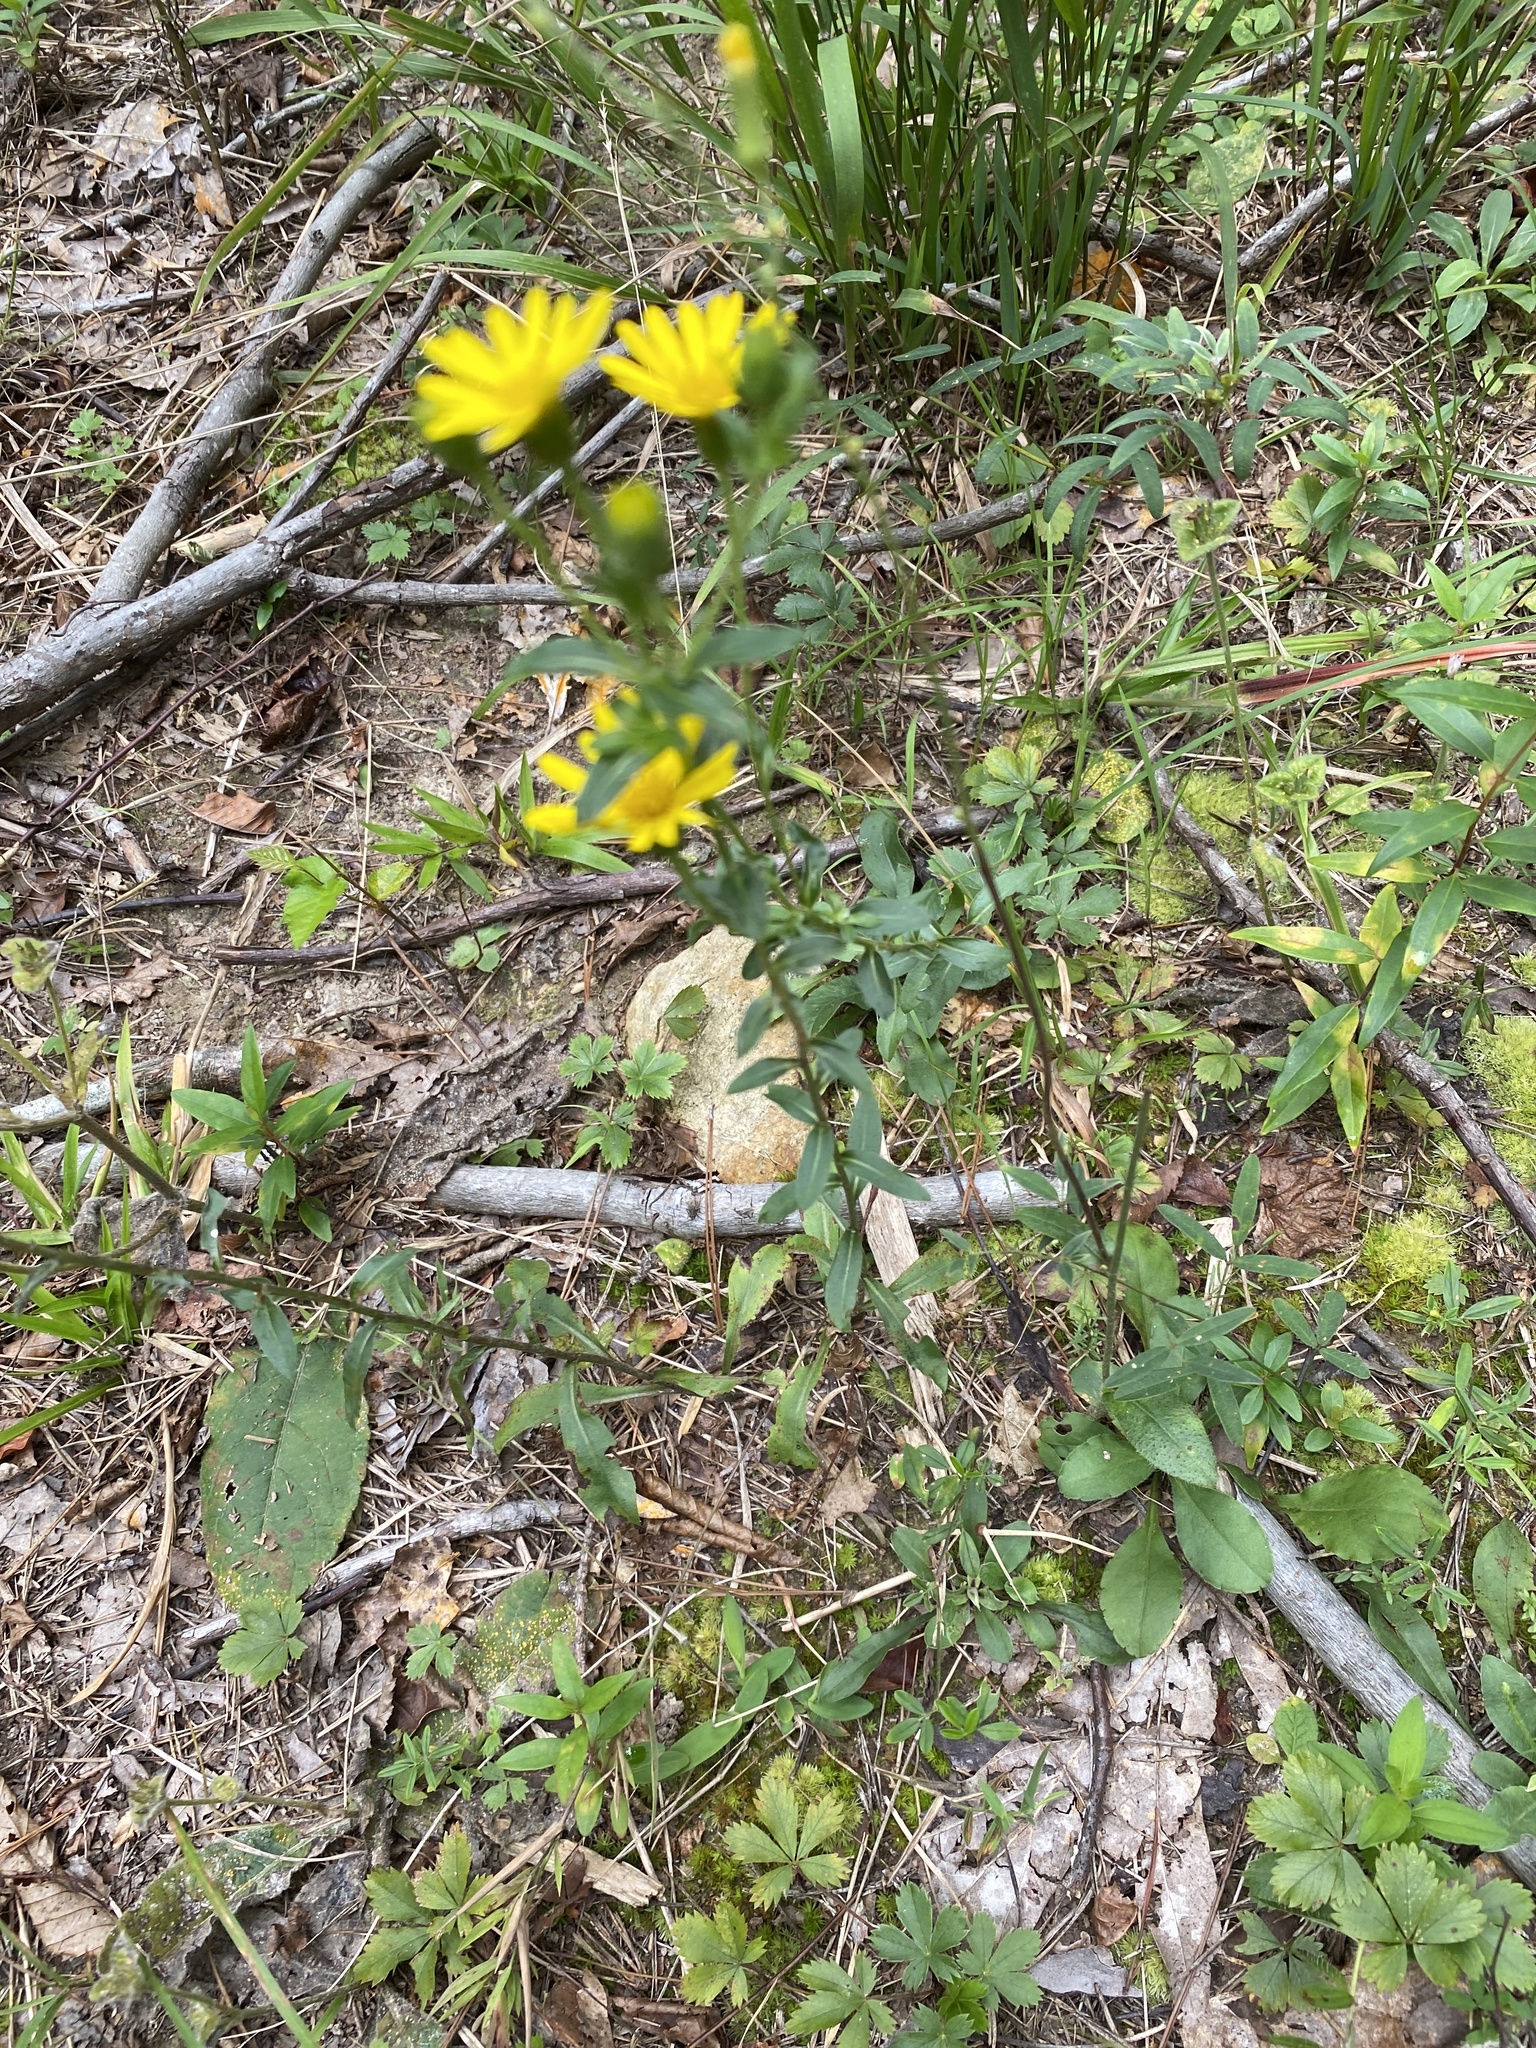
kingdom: Plantae
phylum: Tracheophyta
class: Magnoliopsida
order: Asterales
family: Asteraceae
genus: Chrysopsis
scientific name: Chrysopsis mariana
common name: Maryland golden-aster
